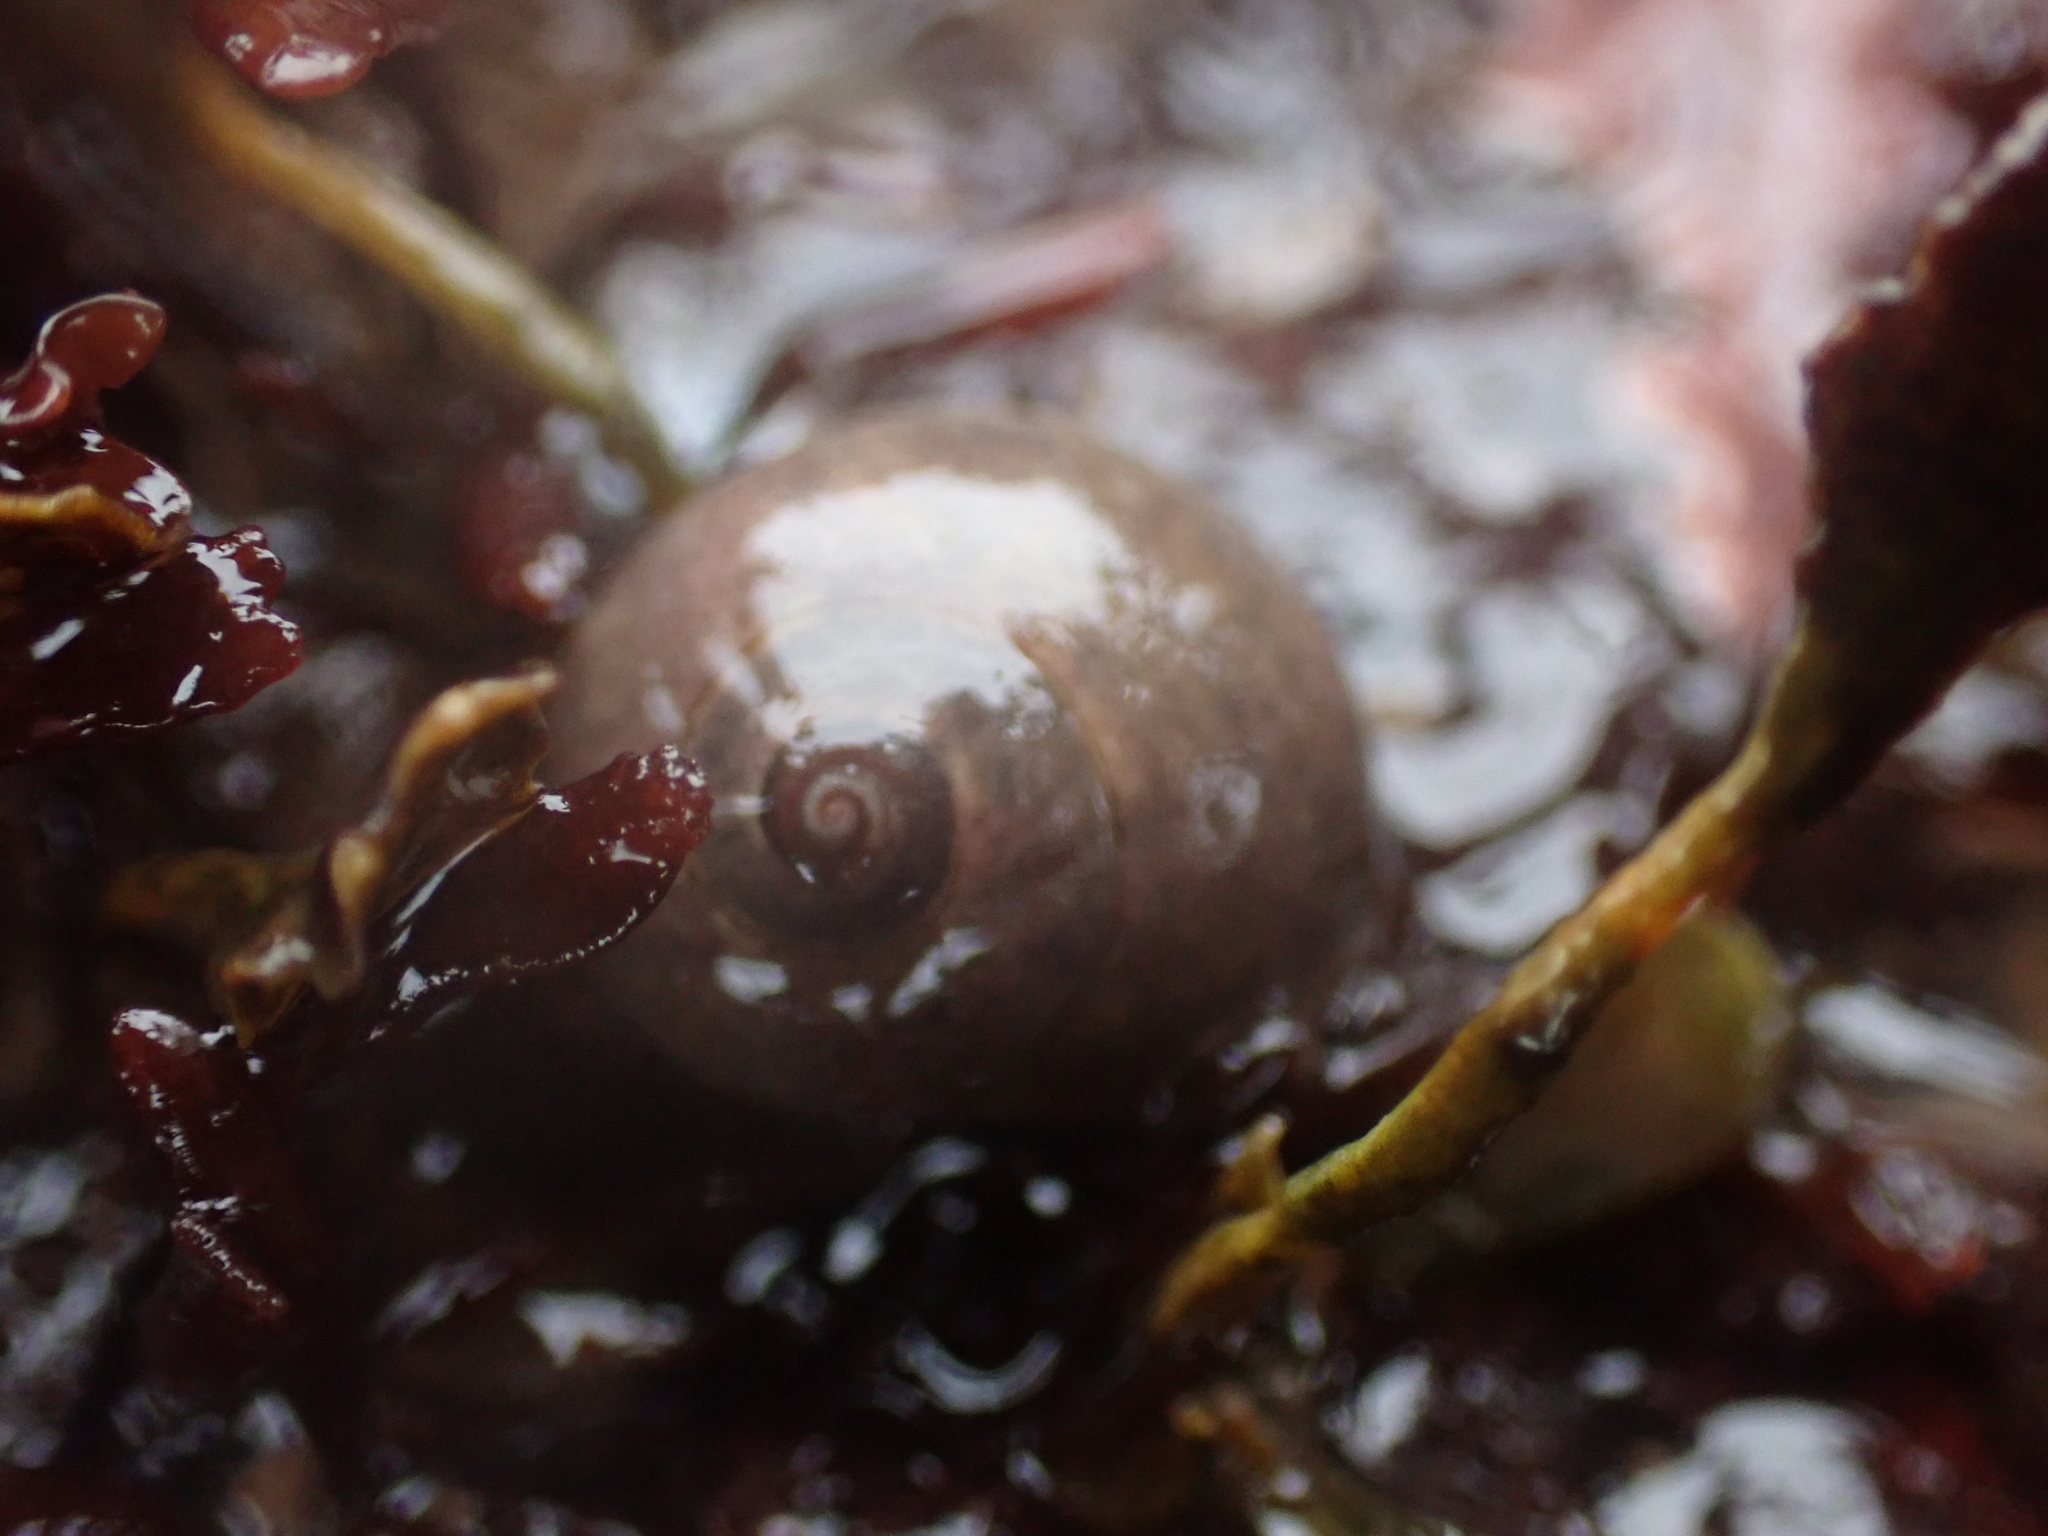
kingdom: Animalia
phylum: Mollusca
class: Gastropoda
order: Littorinimorpha
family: Littorinidae
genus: Littorina
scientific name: Littorina obtusata
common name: Flat periwinkle
